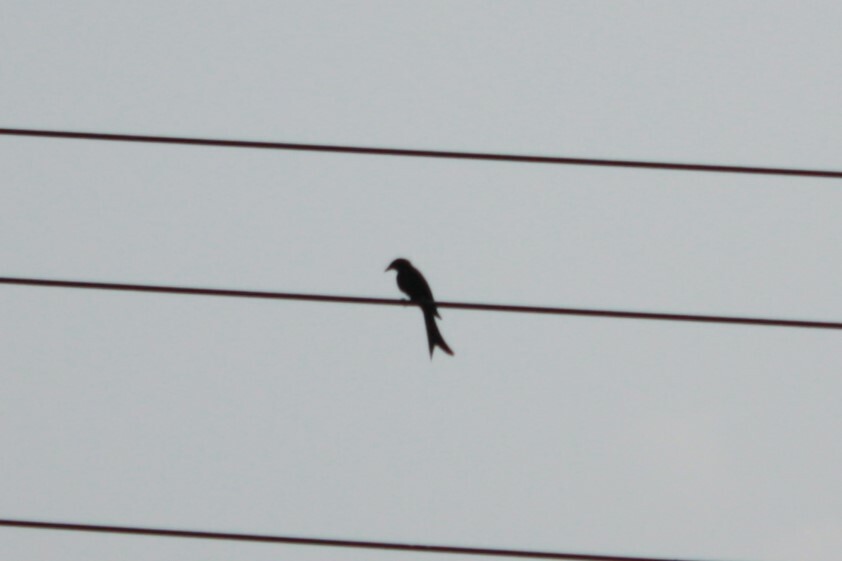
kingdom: Animalia
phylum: Chordata
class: Aves
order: Passeriformes
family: Dicruridae
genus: Dicrurus
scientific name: Dicrurus macrocercus
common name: Black drongo
